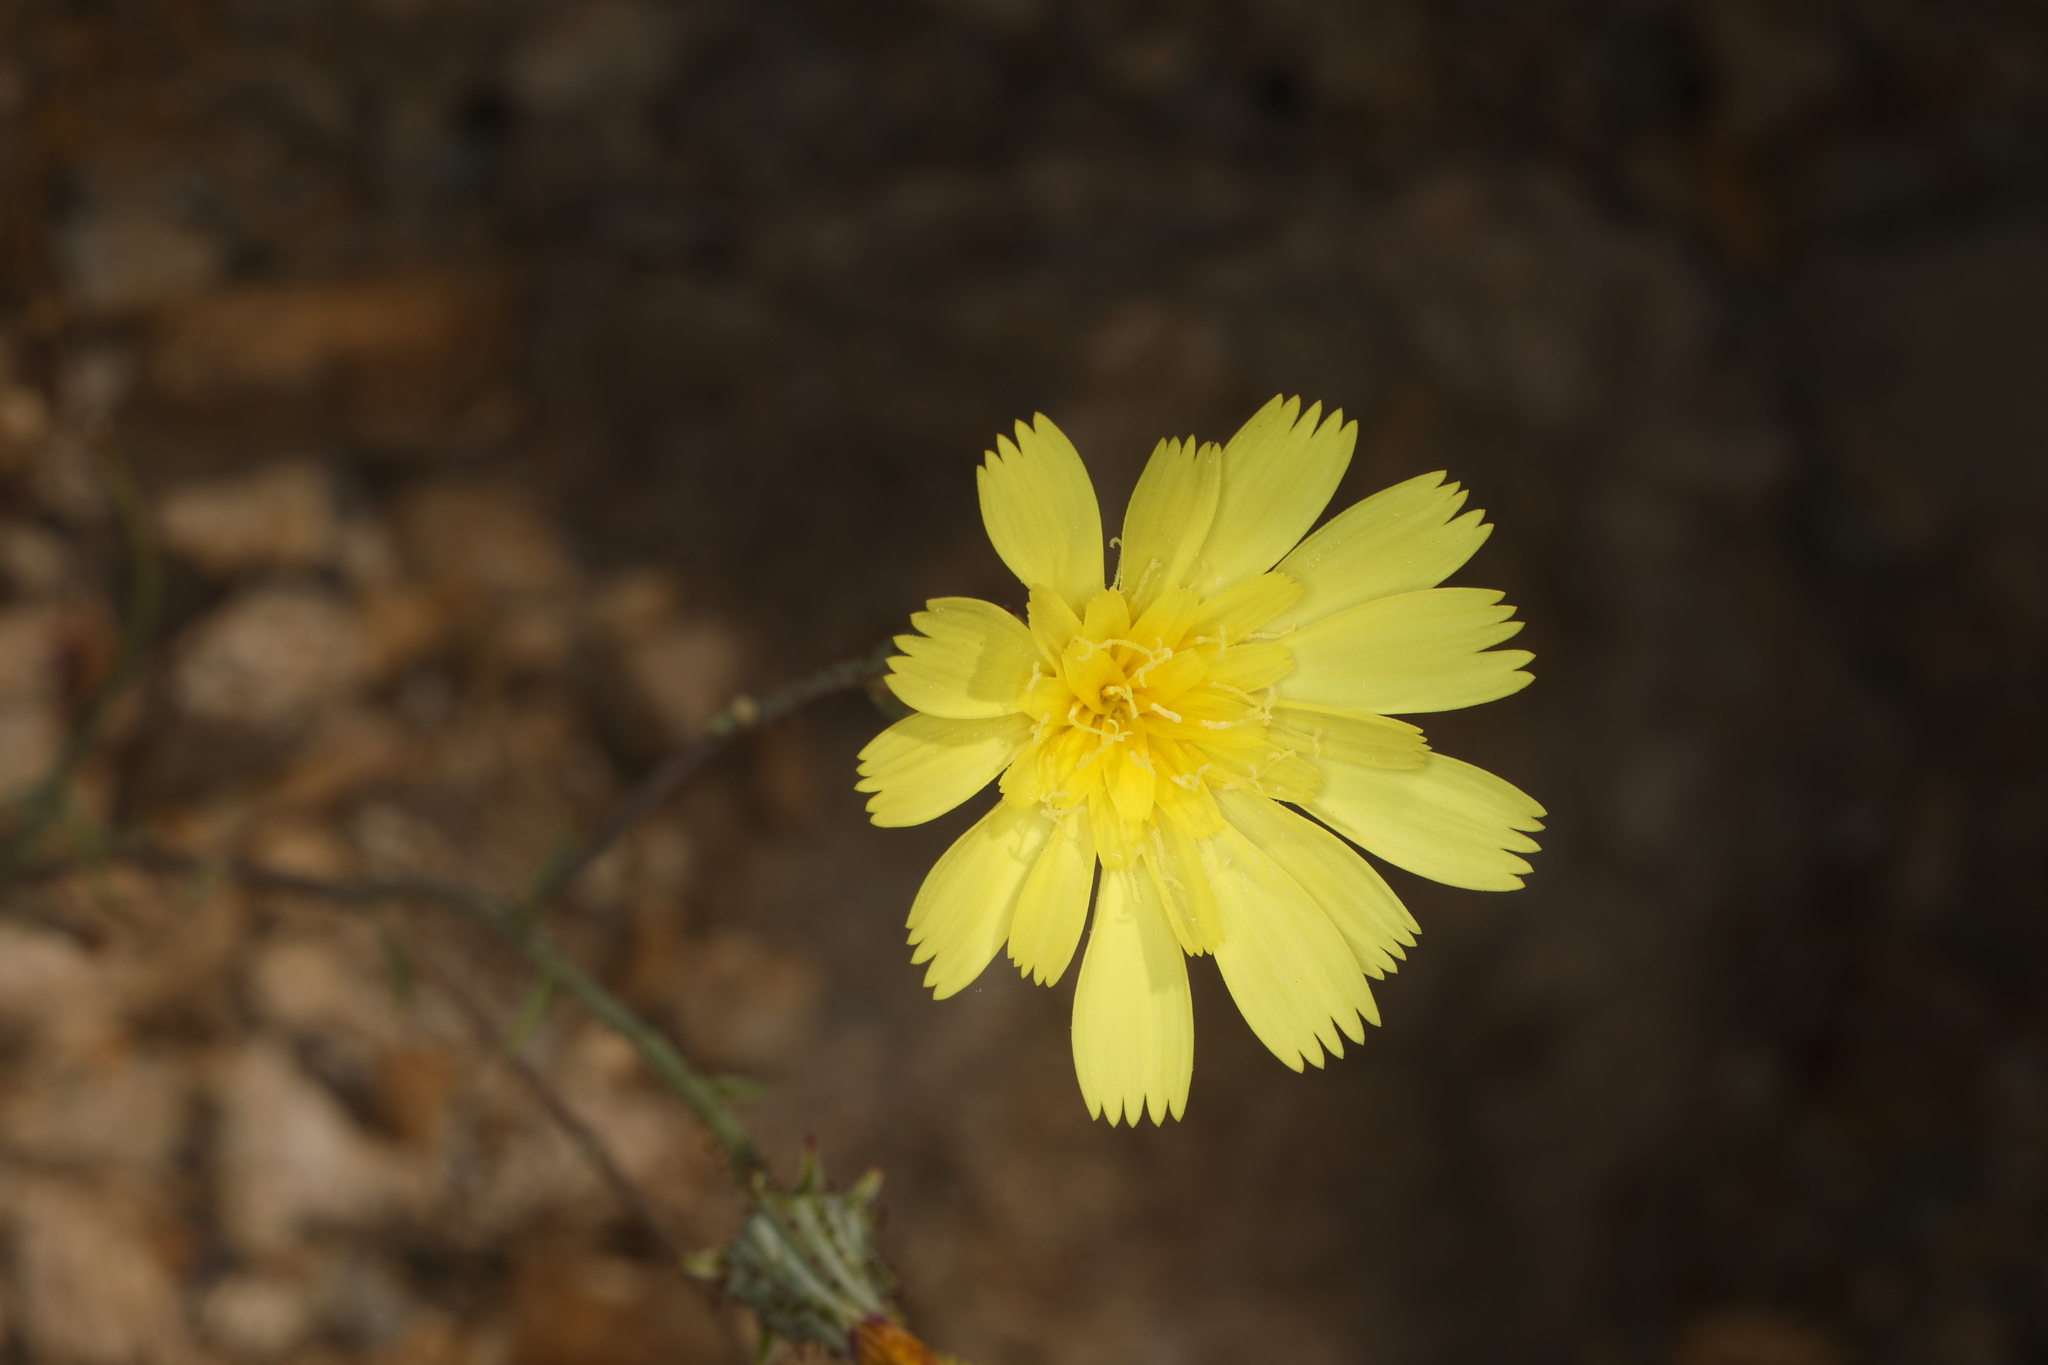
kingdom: Plantae
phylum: Tracheophyta
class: Magnoliopsida
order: Asterales
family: Asteraceae
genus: Calycoseris
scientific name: Calycoseris parryi
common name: Yellow tackstem
